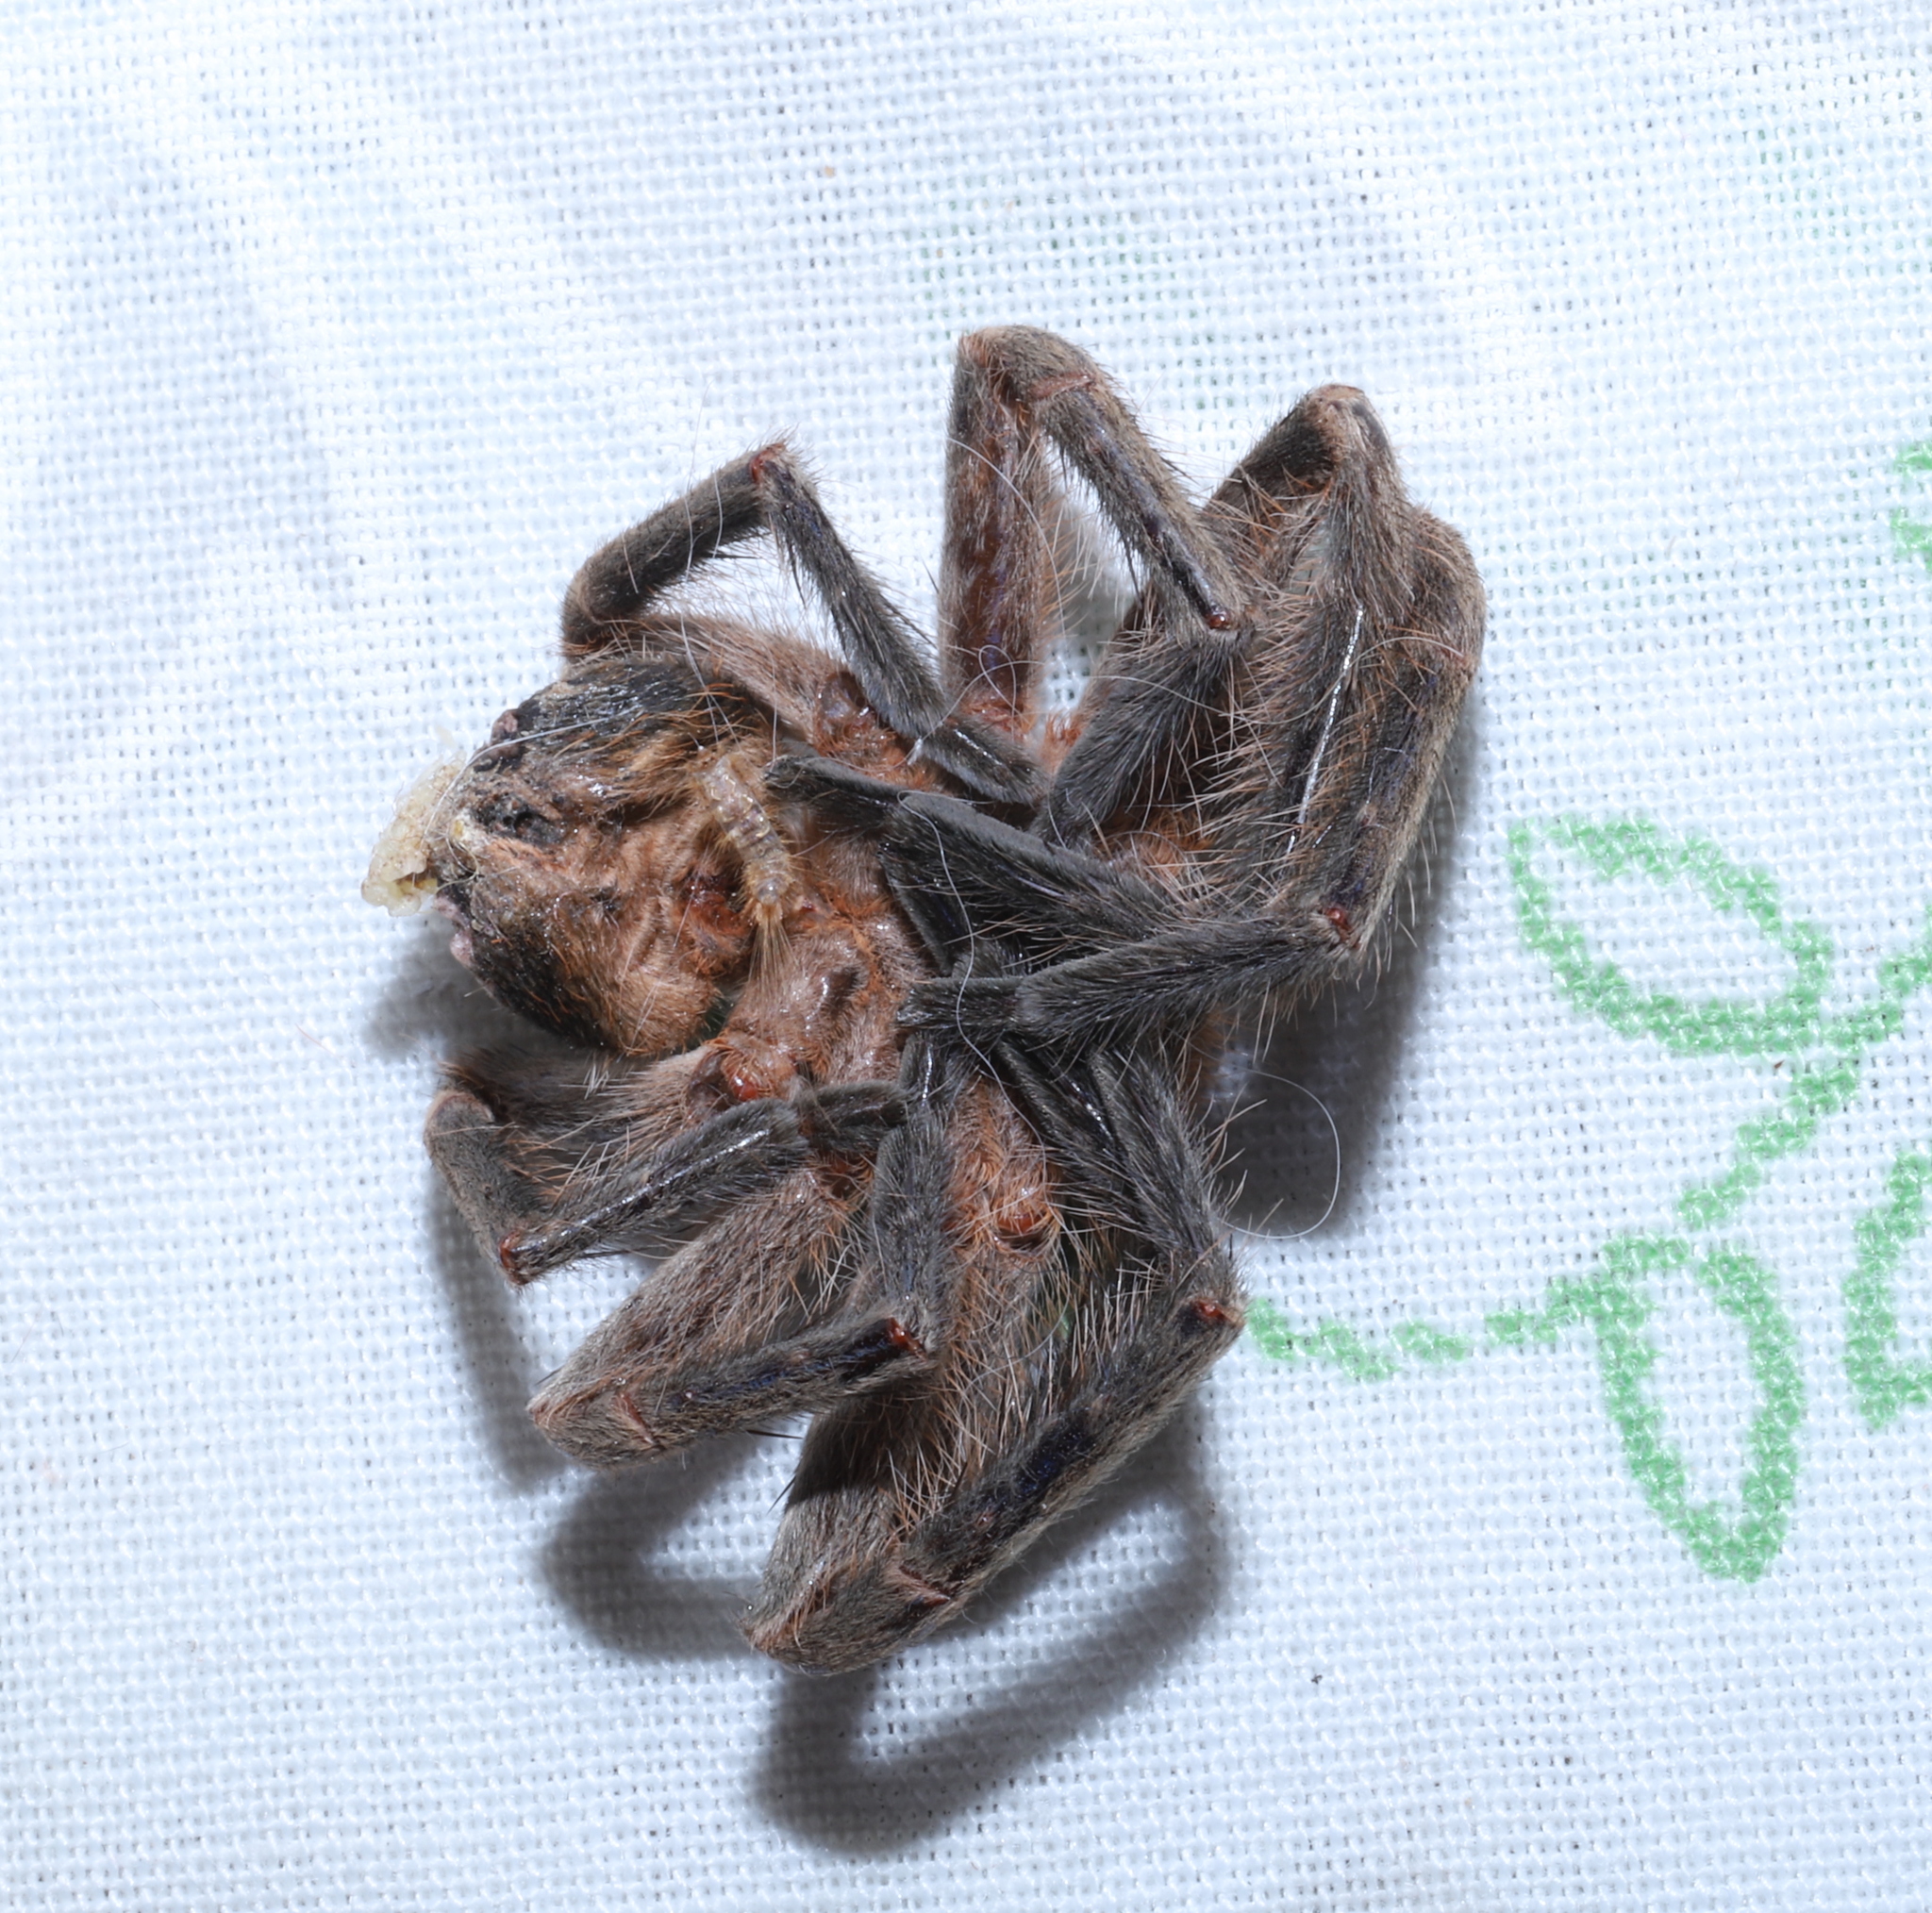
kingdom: Animalia
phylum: Arthropoda
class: Arachnida
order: Araneae
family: Sparassidae
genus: Polybetes
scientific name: Polybetes martius
